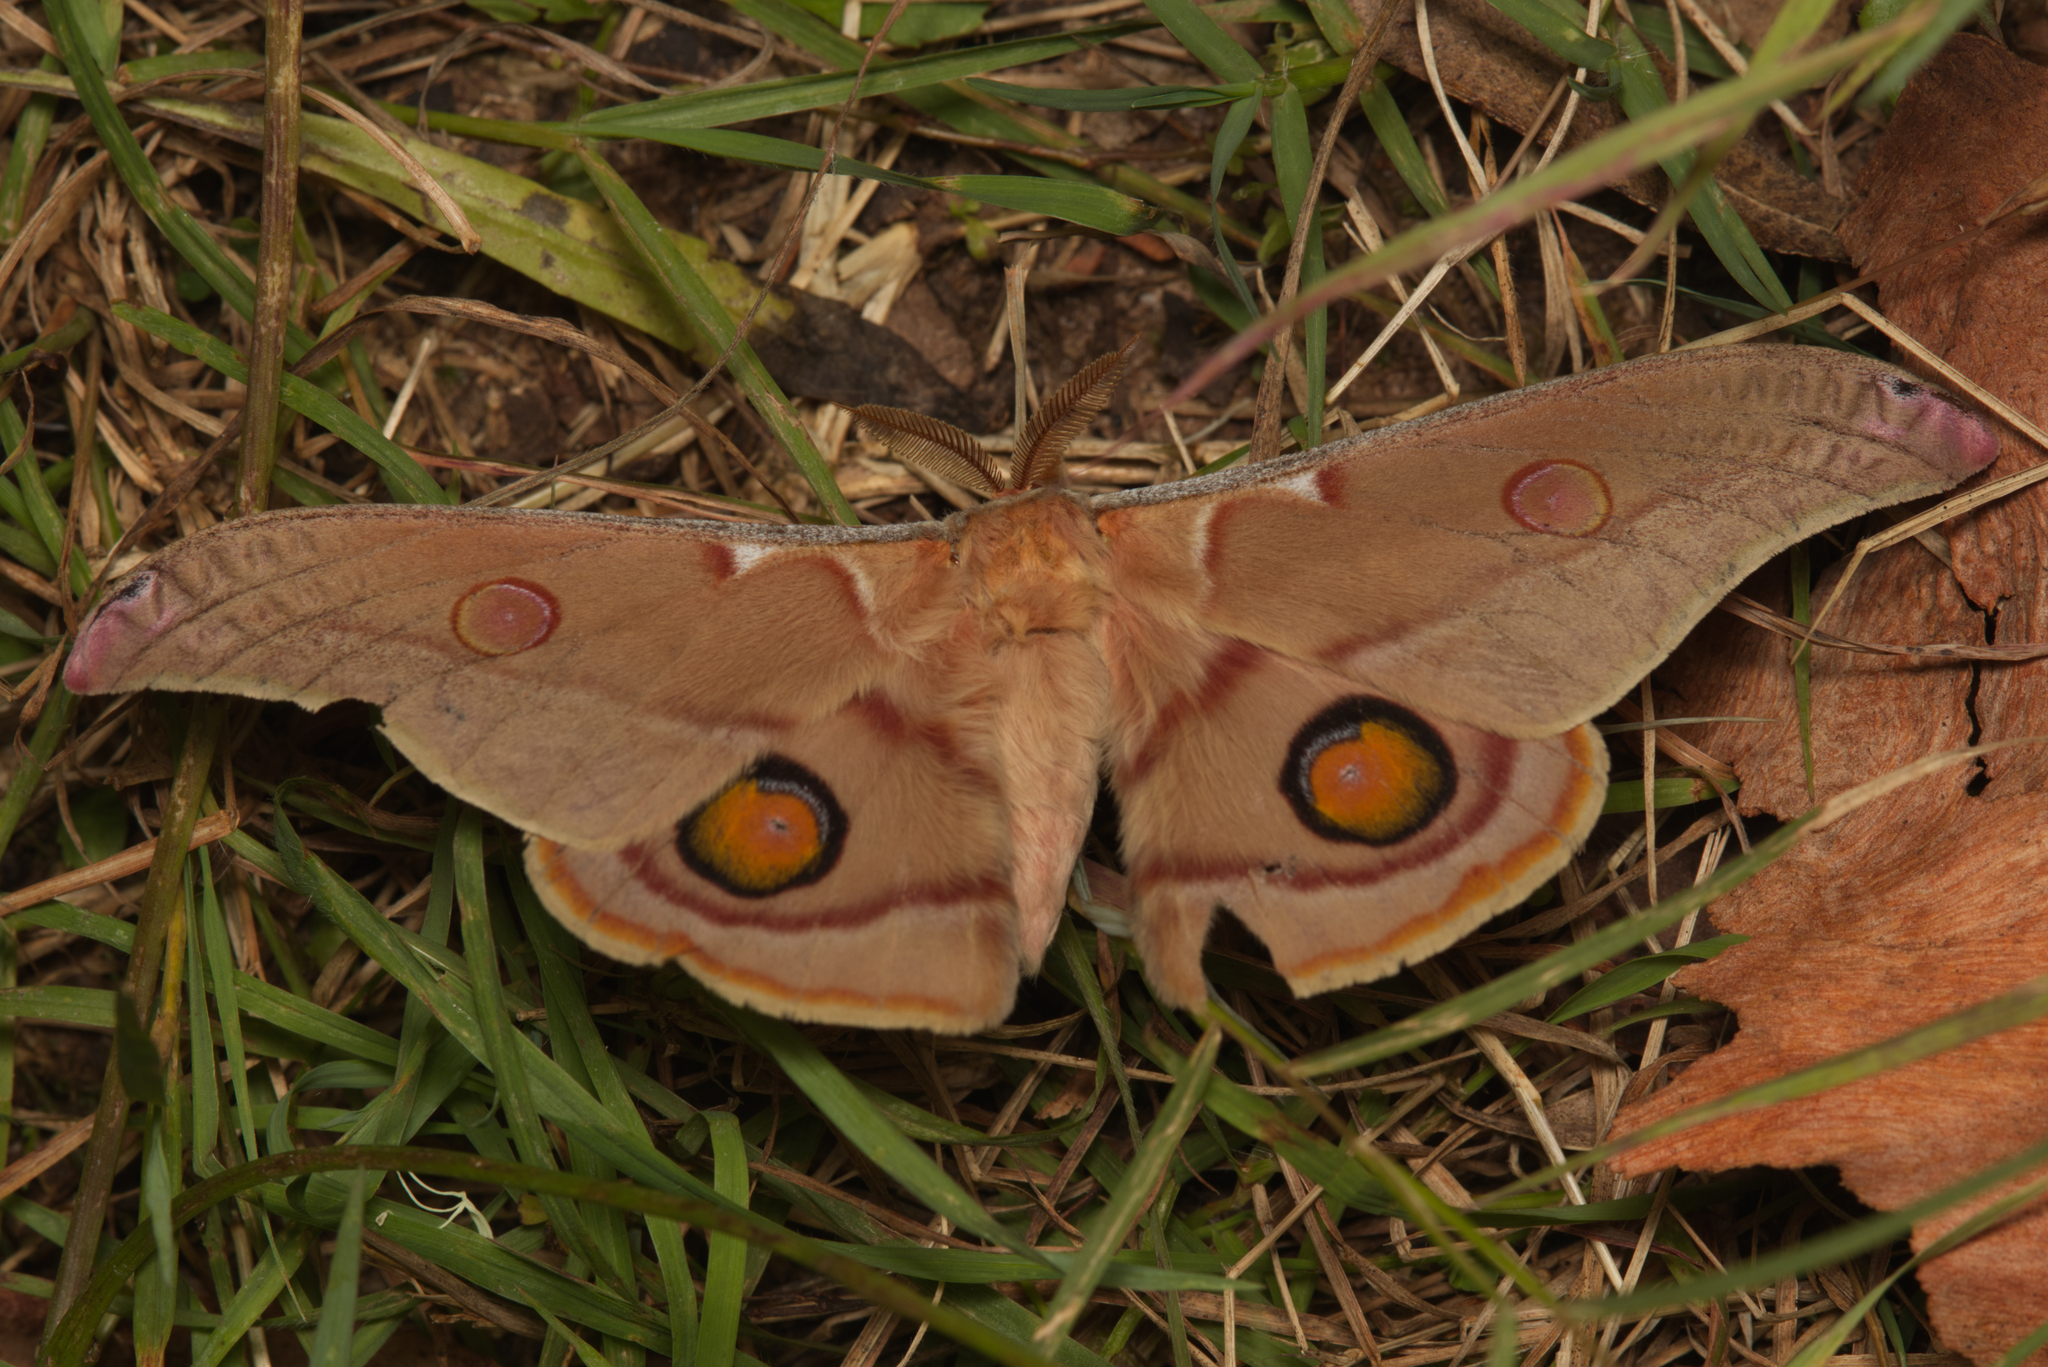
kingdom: Animalia
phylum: Arthropoda
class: Insecta
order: Lepidoptera
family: Saturniidae
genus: Opodiphthera
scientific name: Opodiphthera
